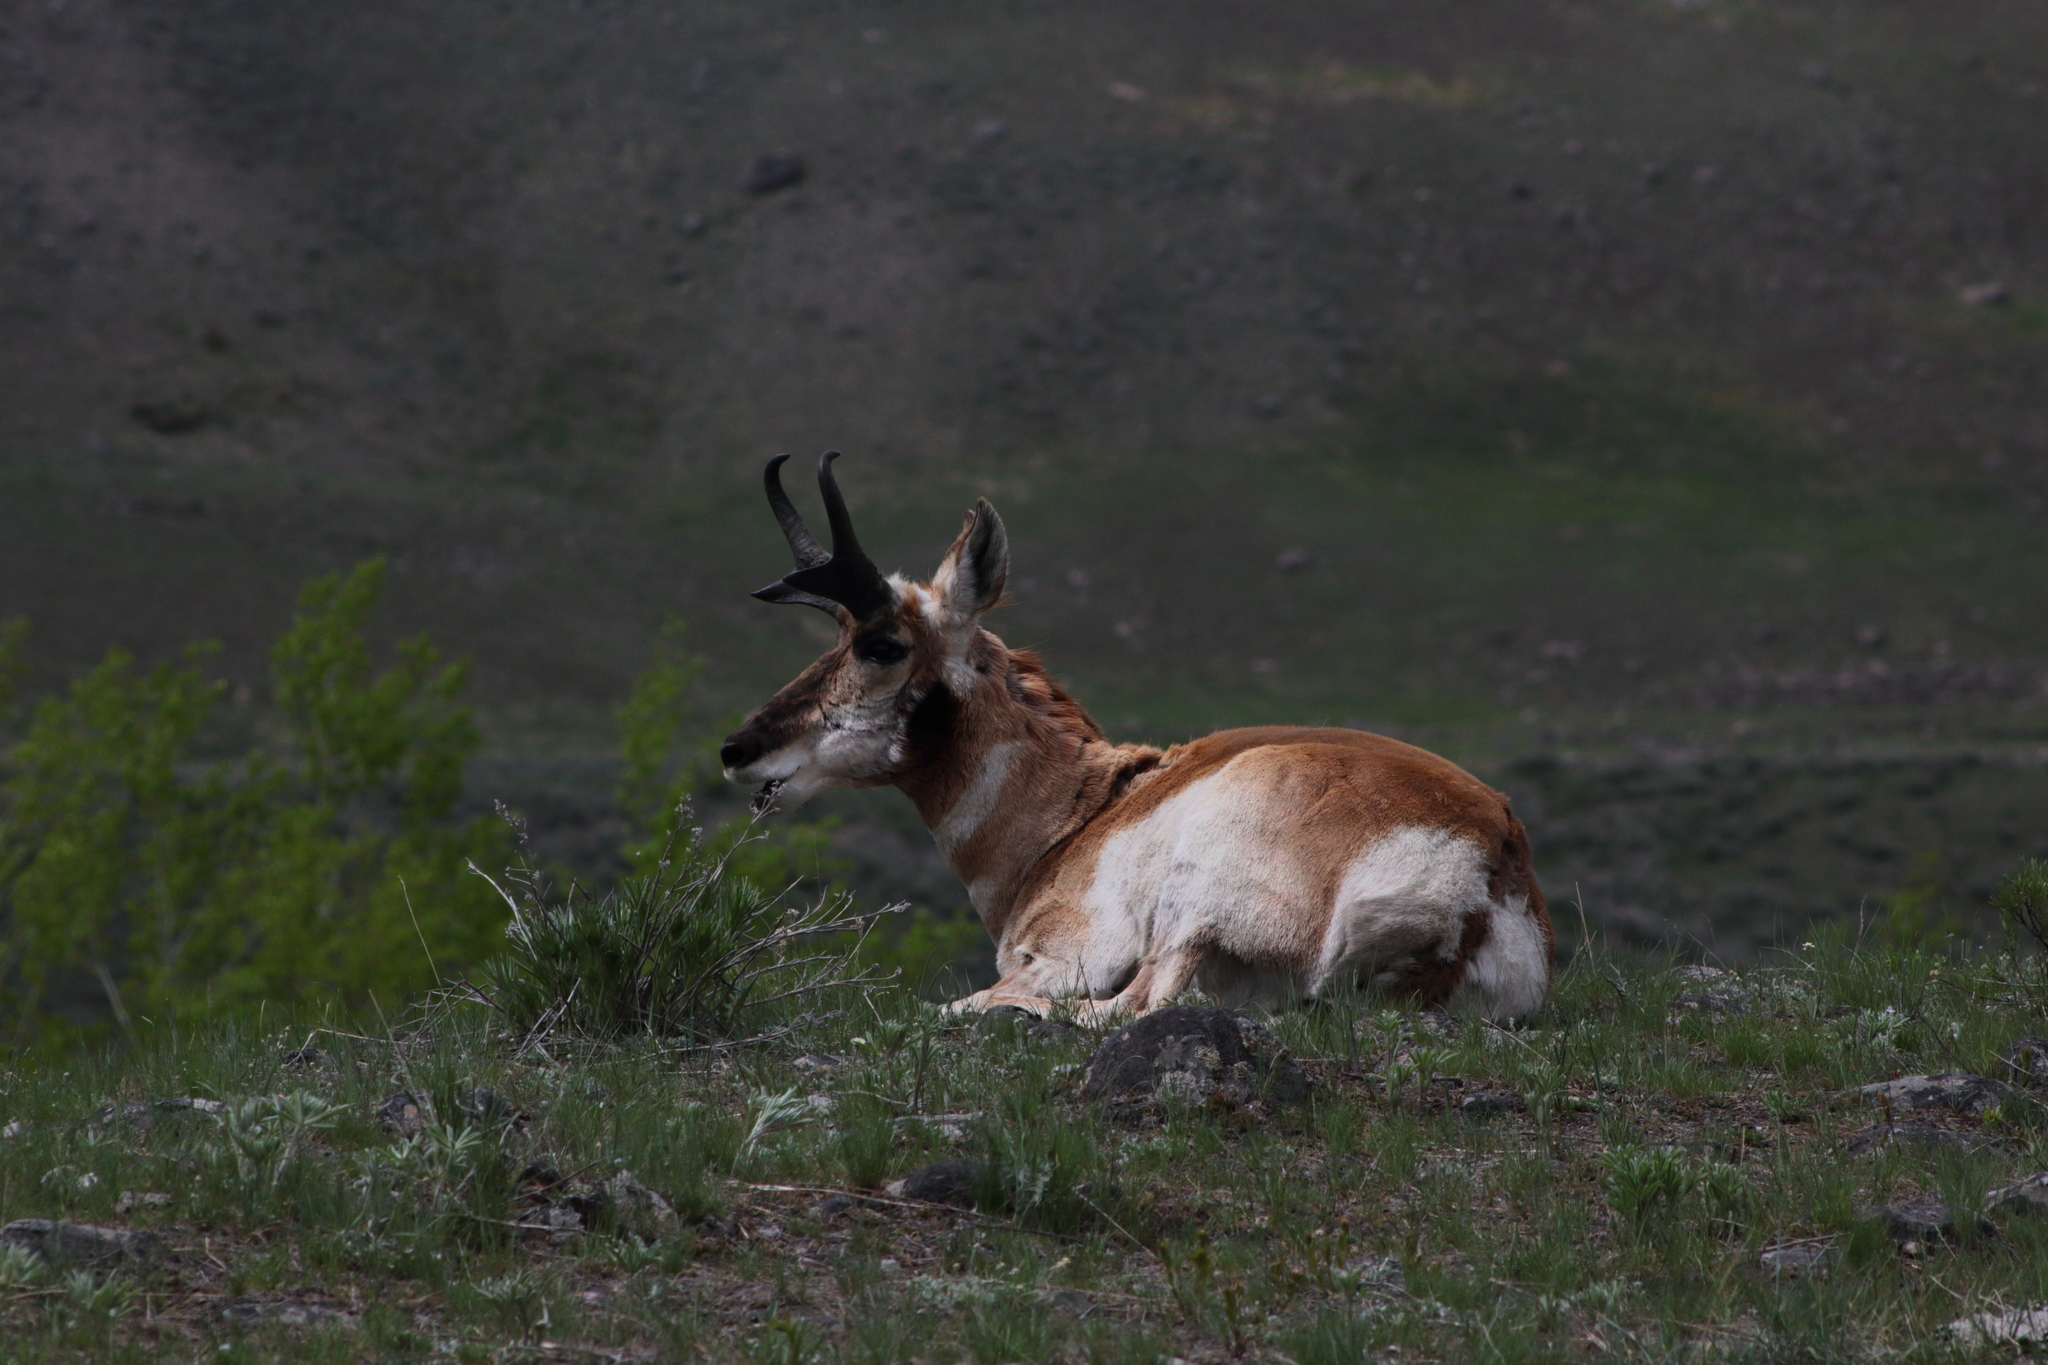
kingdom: Animalia
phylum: Chordata
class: Mammalia
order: Artiodactyla
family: Antilocapridae
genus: Antilocapra
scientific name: Antilocapra americana
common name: Pronghorn
